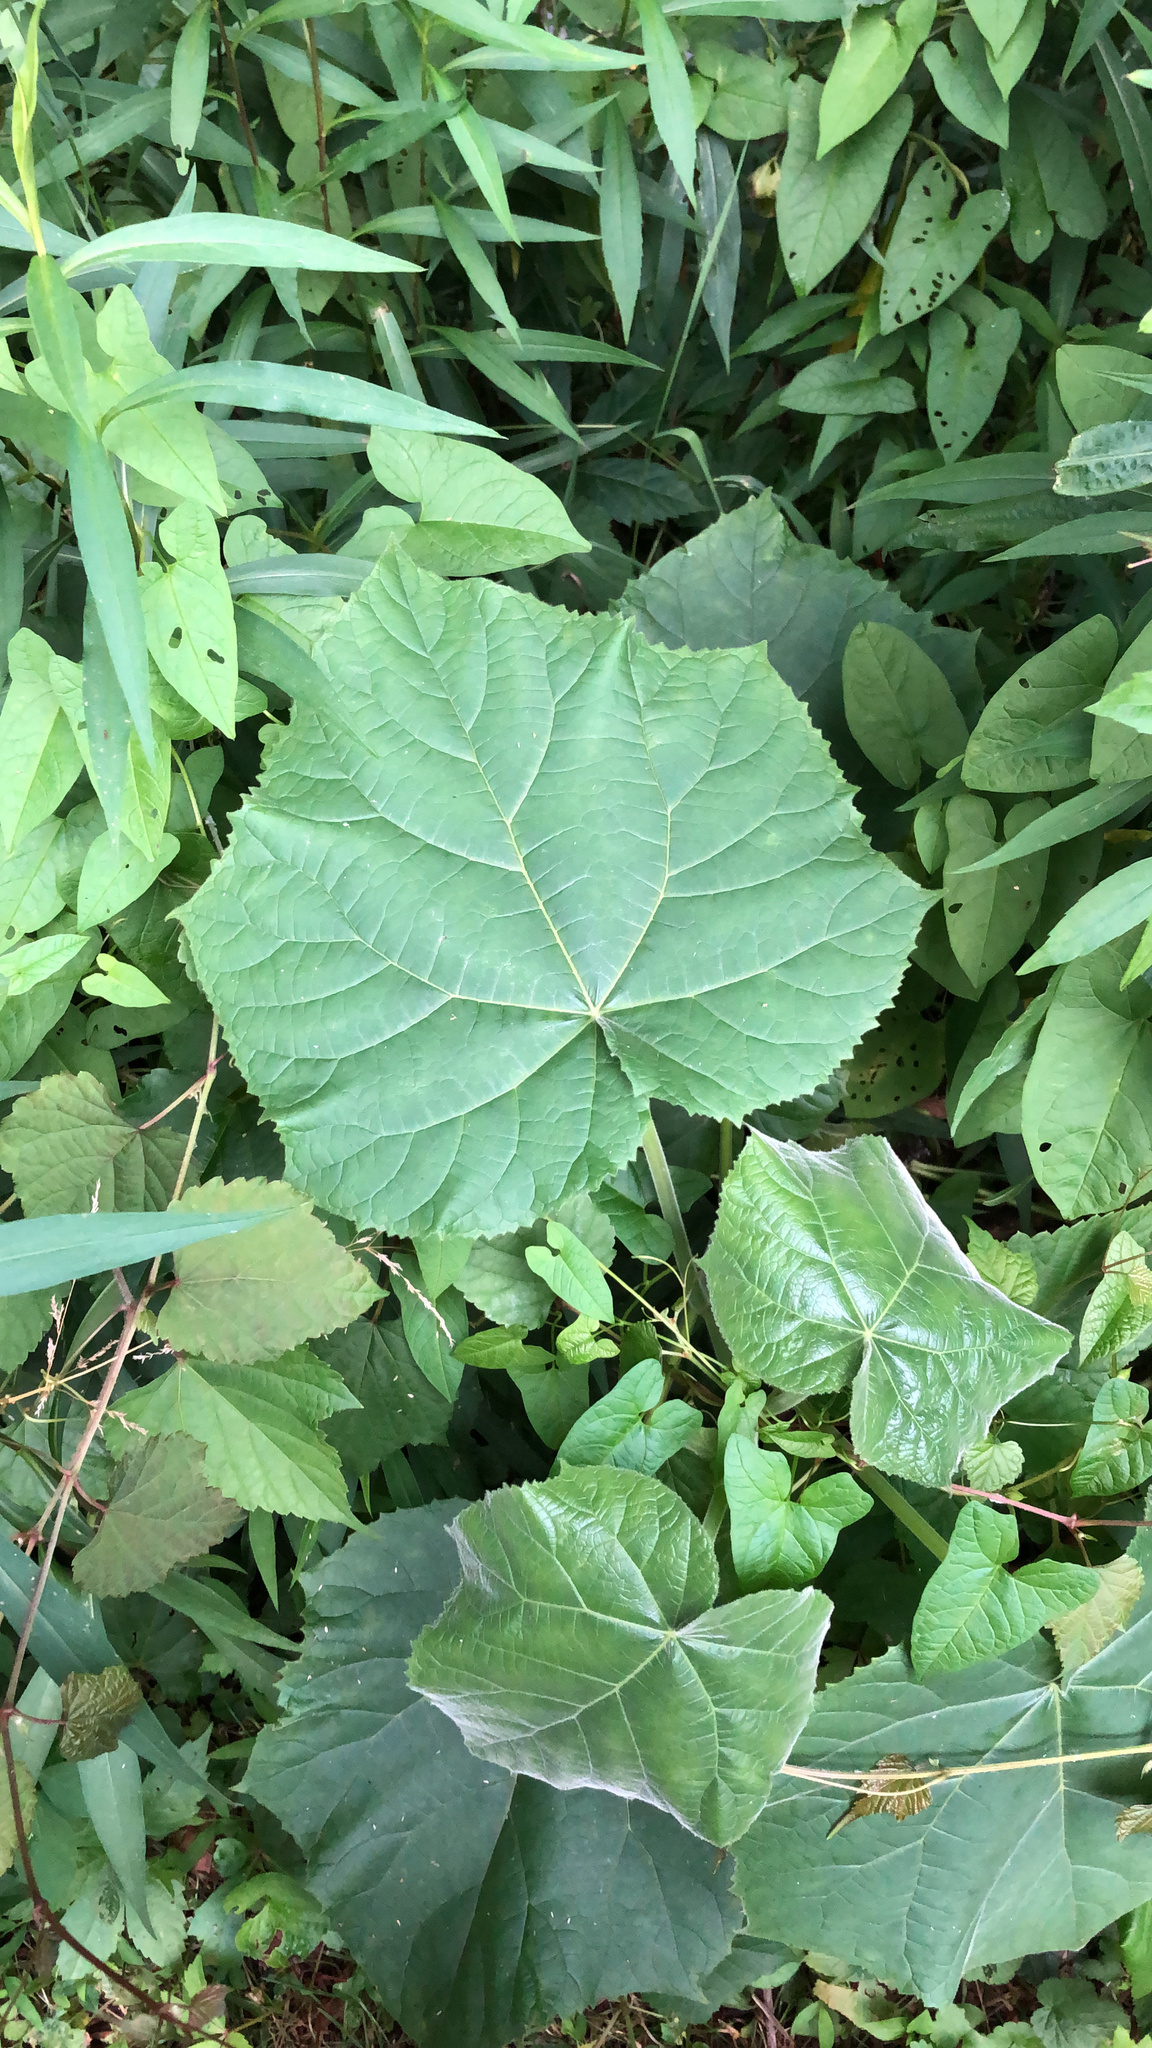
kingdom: Plantae
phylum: Tracheophyta
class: Magnoliopsida
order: Lamiales
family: Paulowniaceae
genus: Paulownia
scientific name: Paulownia tomentosa
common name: Foxglove-tree
